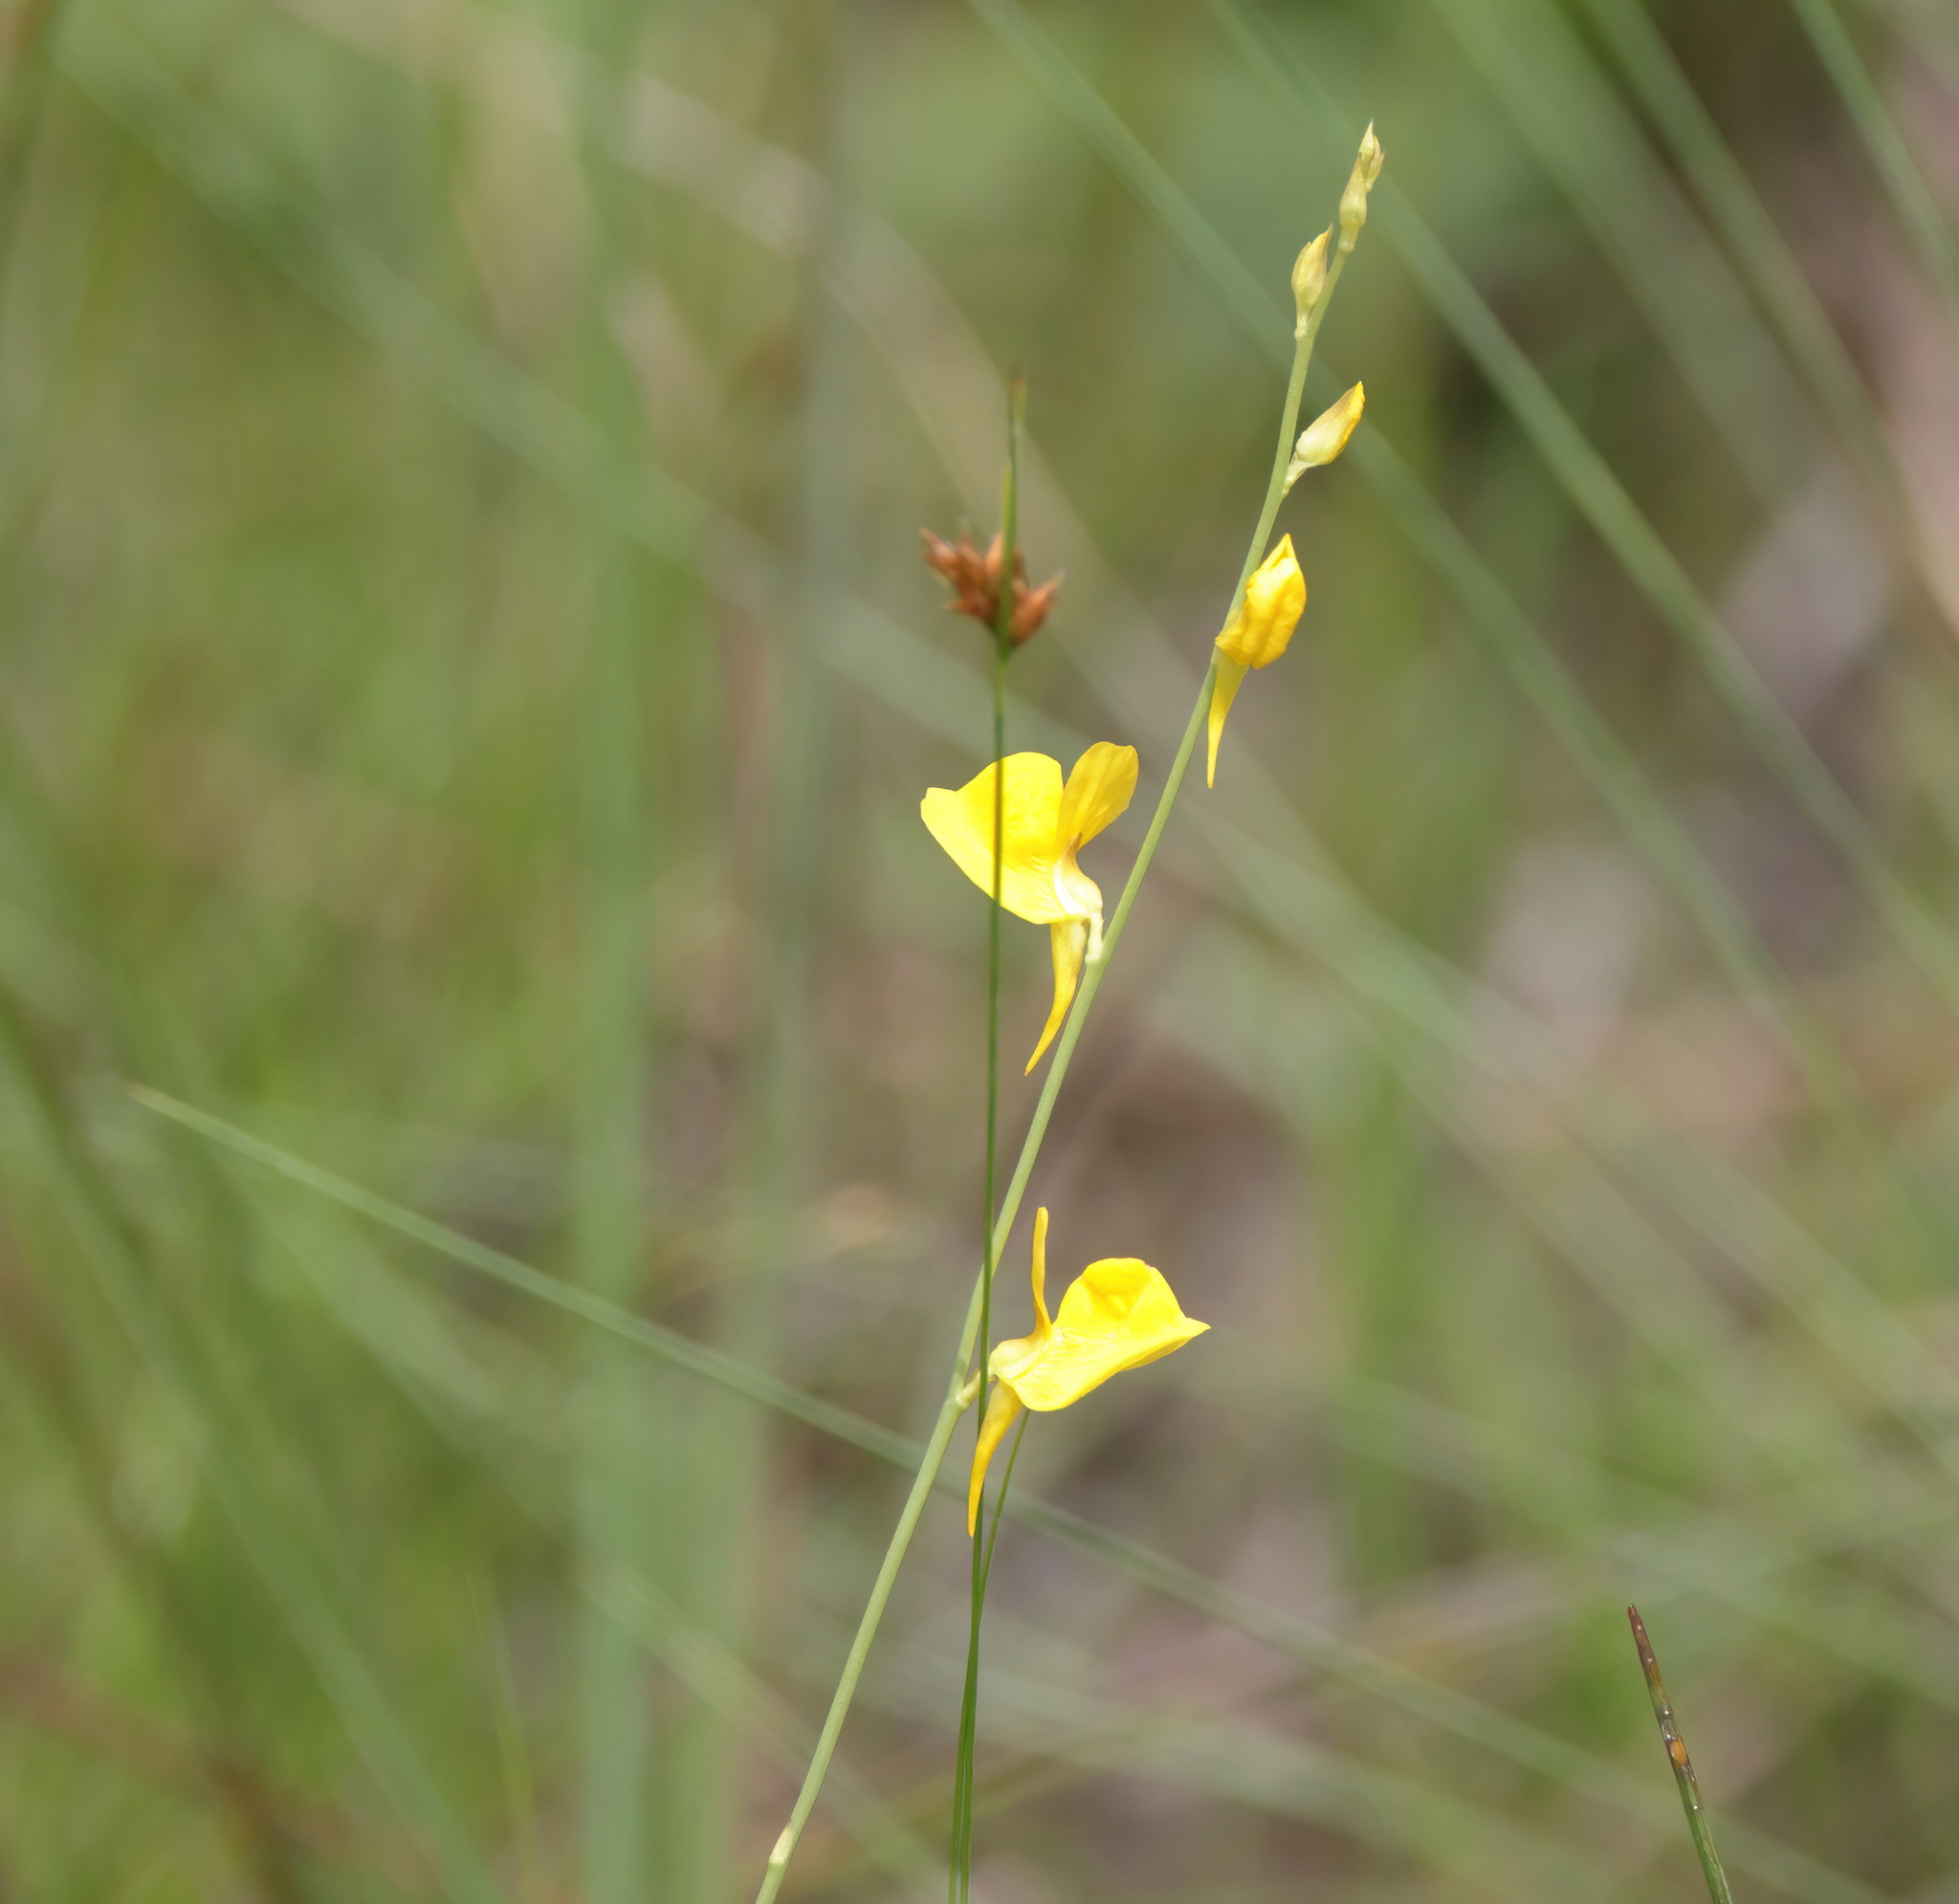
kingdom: Plantae
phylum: Tracheophyta
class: Magnoliopsida
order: Lamiales
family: Lentibulariaceae
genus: Utricularia
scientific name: Utricularia juncea
